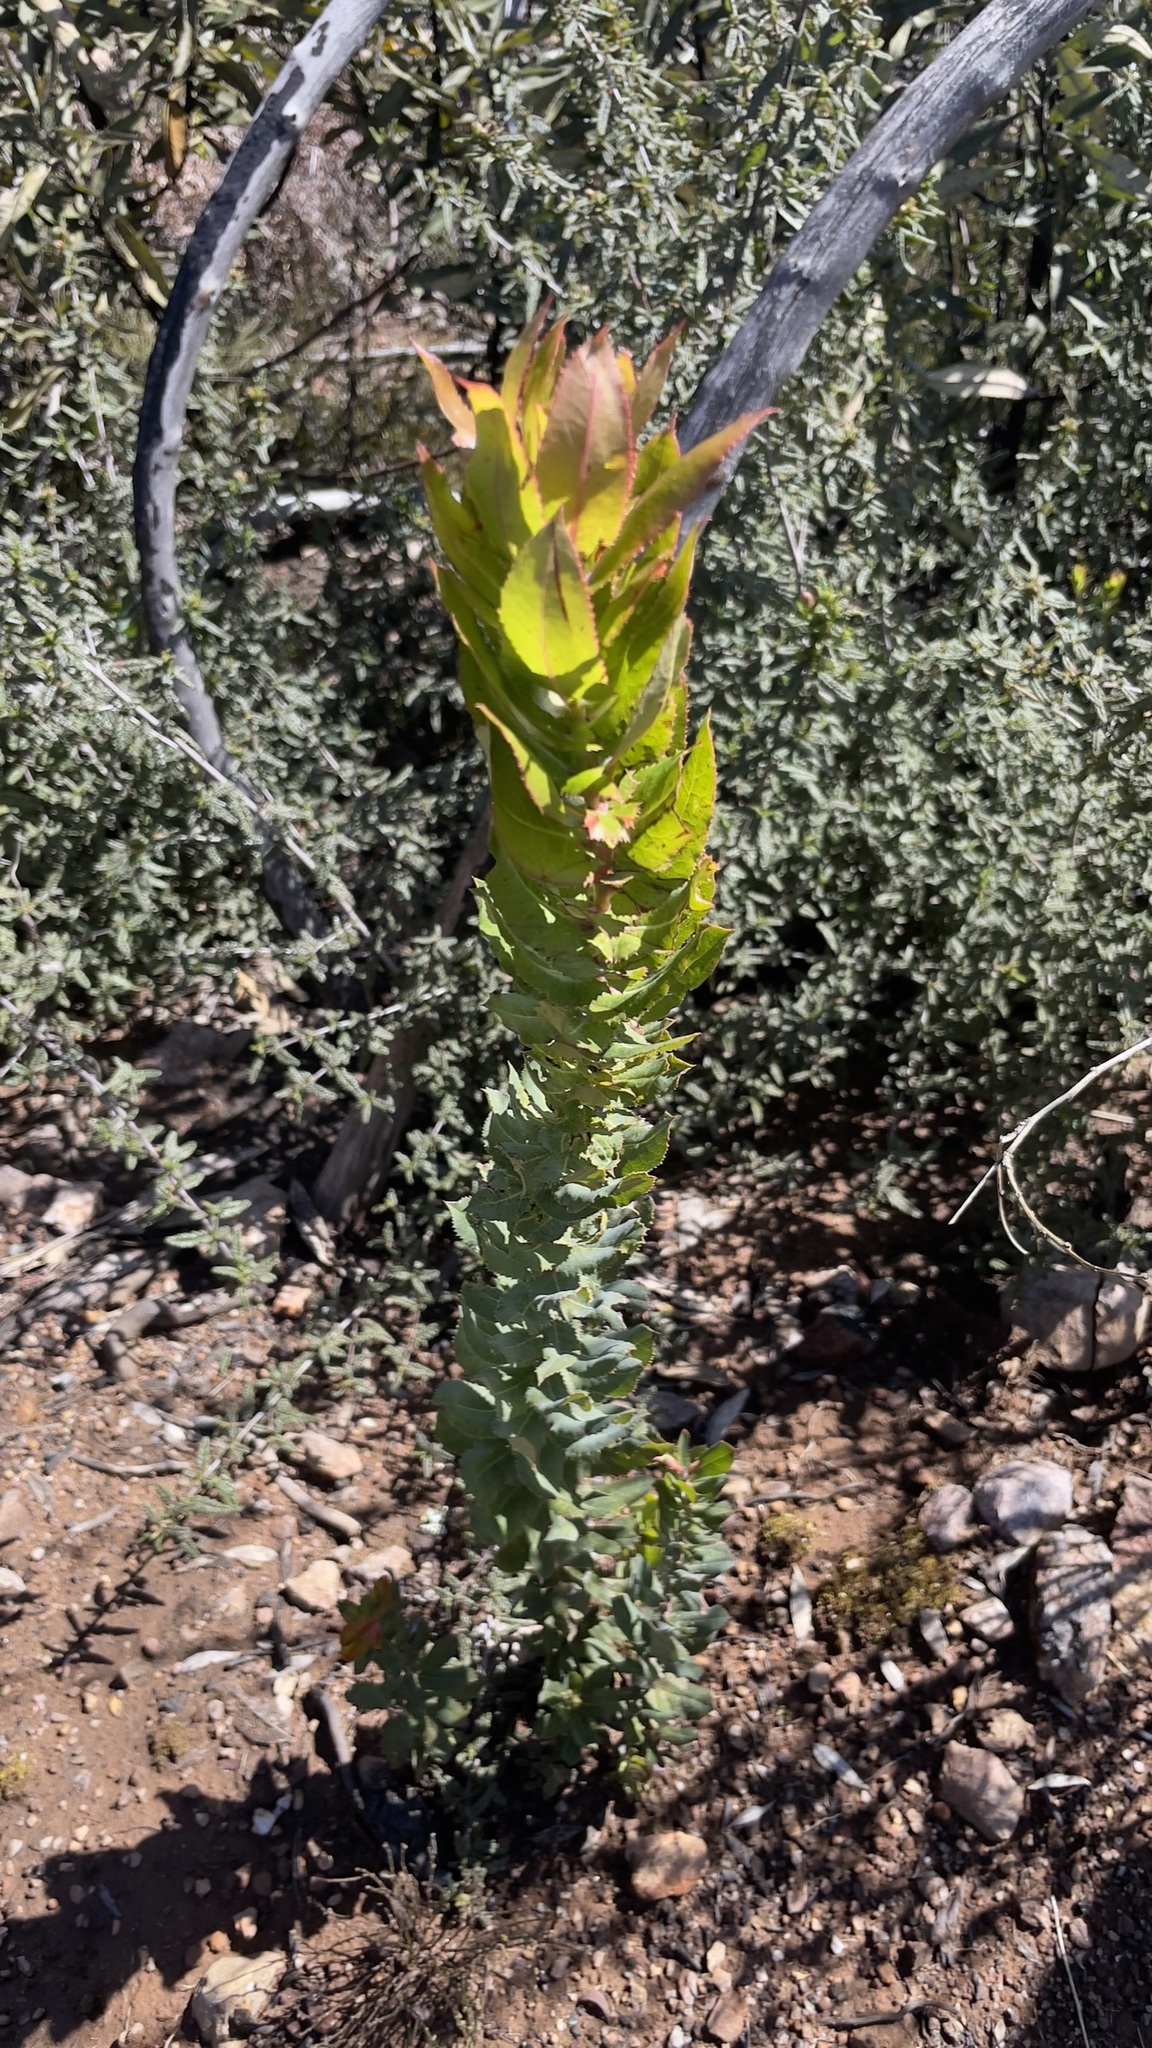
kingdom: Plantae
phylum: Tracheophyta
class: Magnoliopsida
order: Ericales
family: Ericaceae
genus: Arctostaphylos
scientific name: Arctostaphylos andersonii
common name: Santa cruz manzanita
